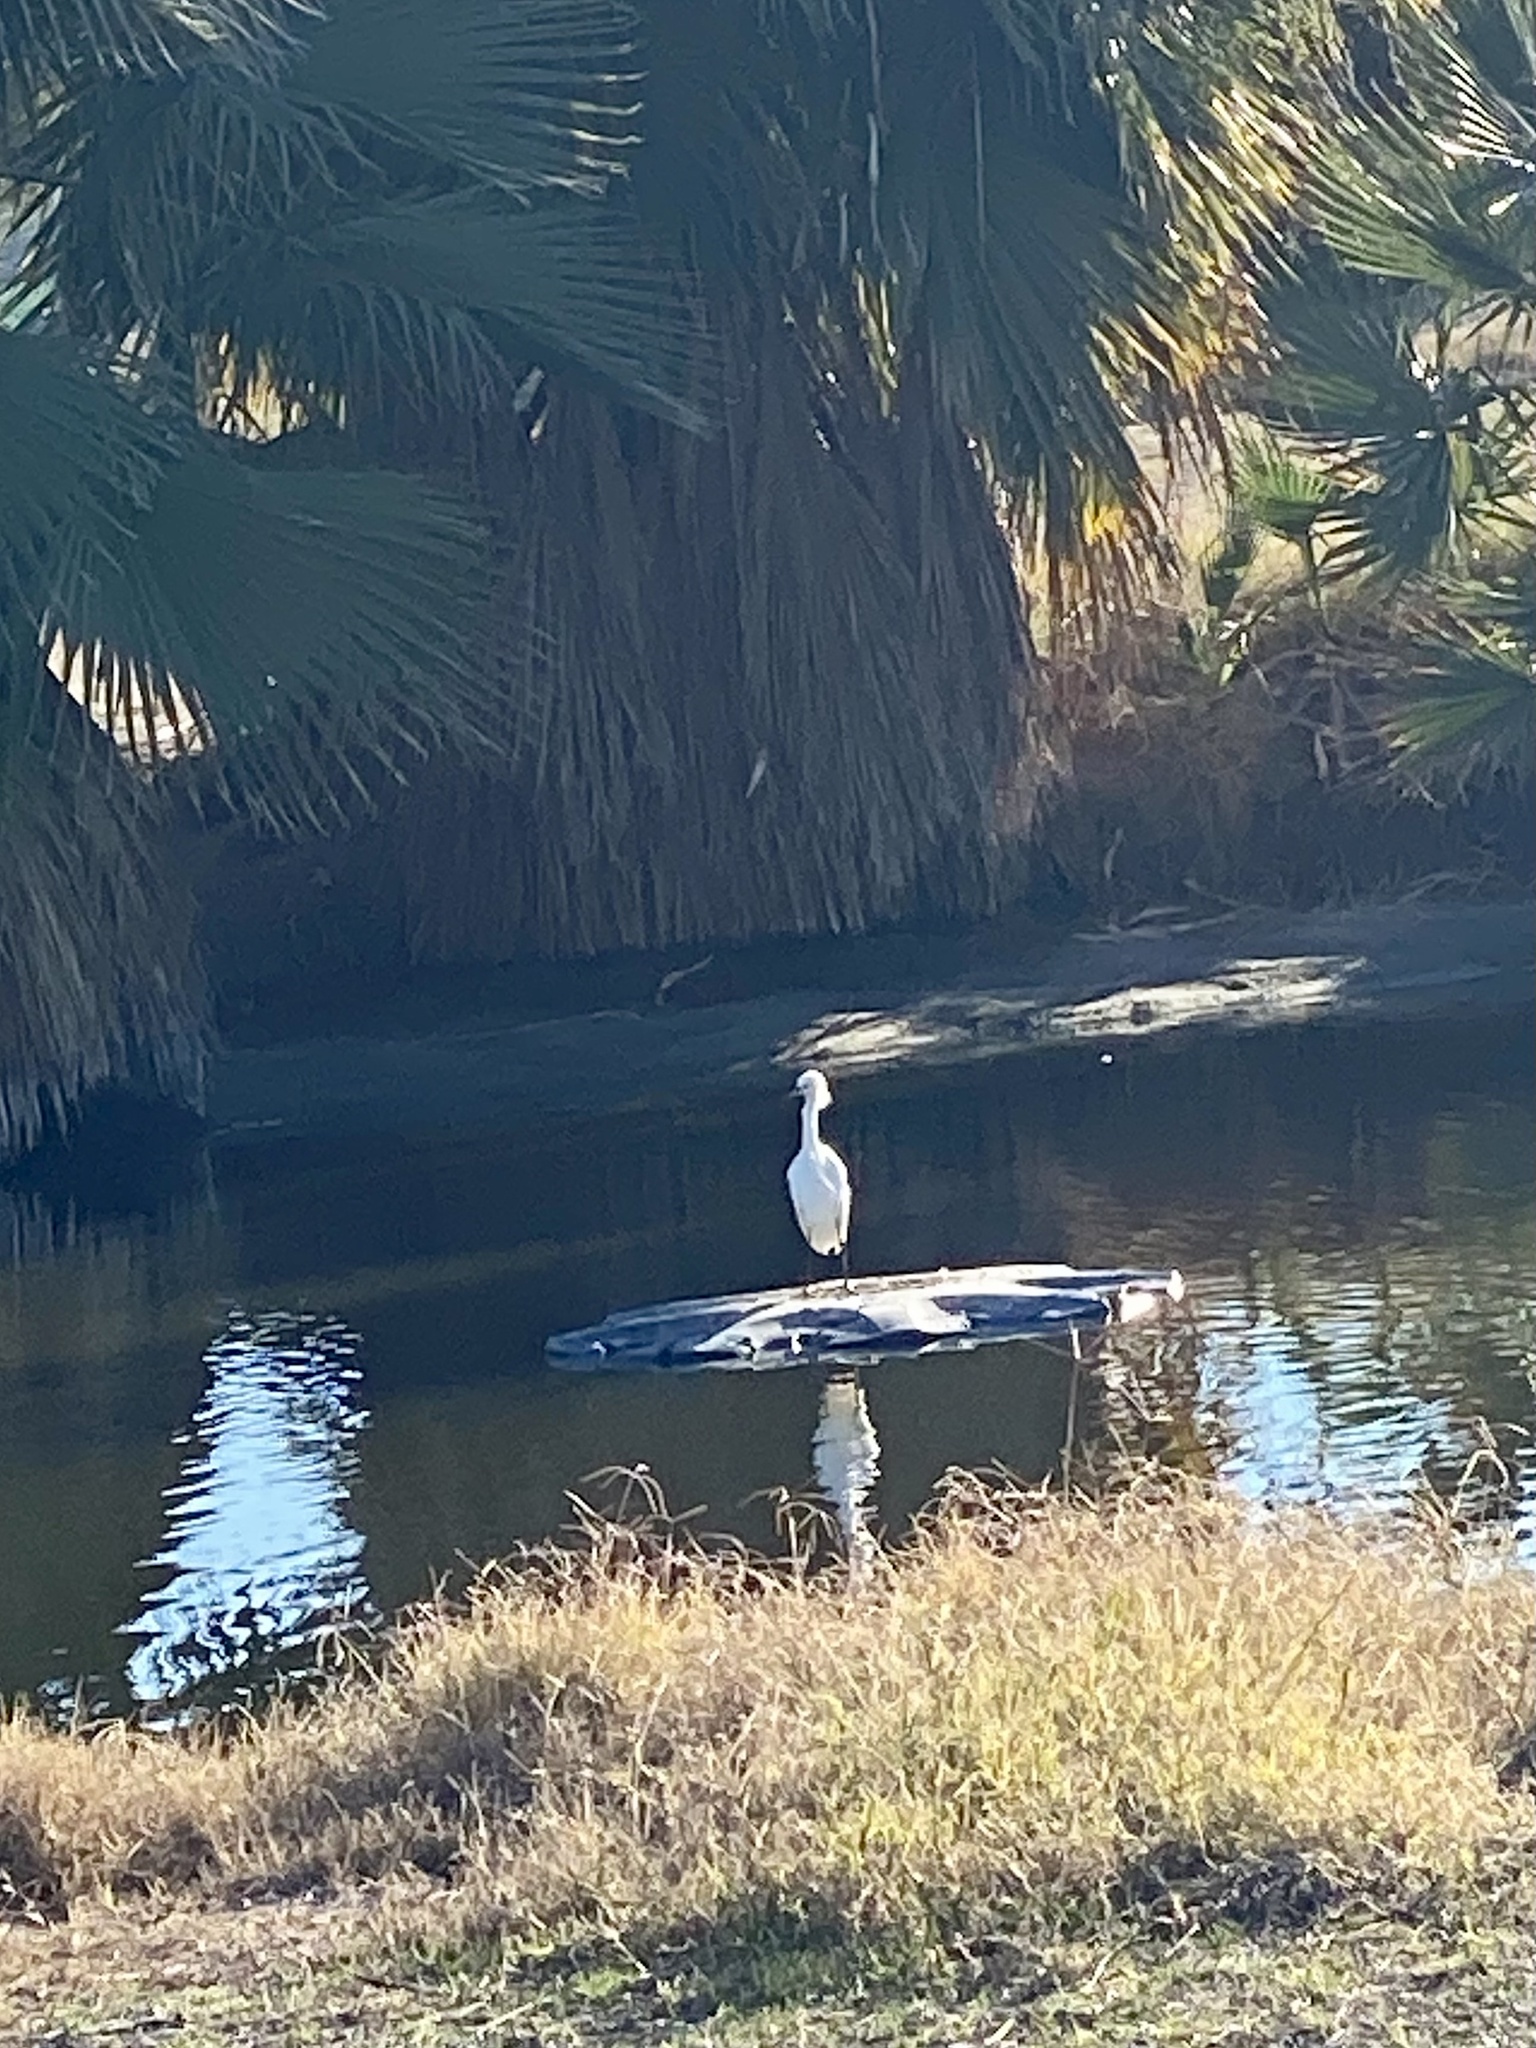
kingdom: Animalia
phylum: Chordata
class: Aves
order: Pelecaniformes
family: Ardeidae
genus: Egretta
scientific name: Egretta thula
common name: Snowy egret
